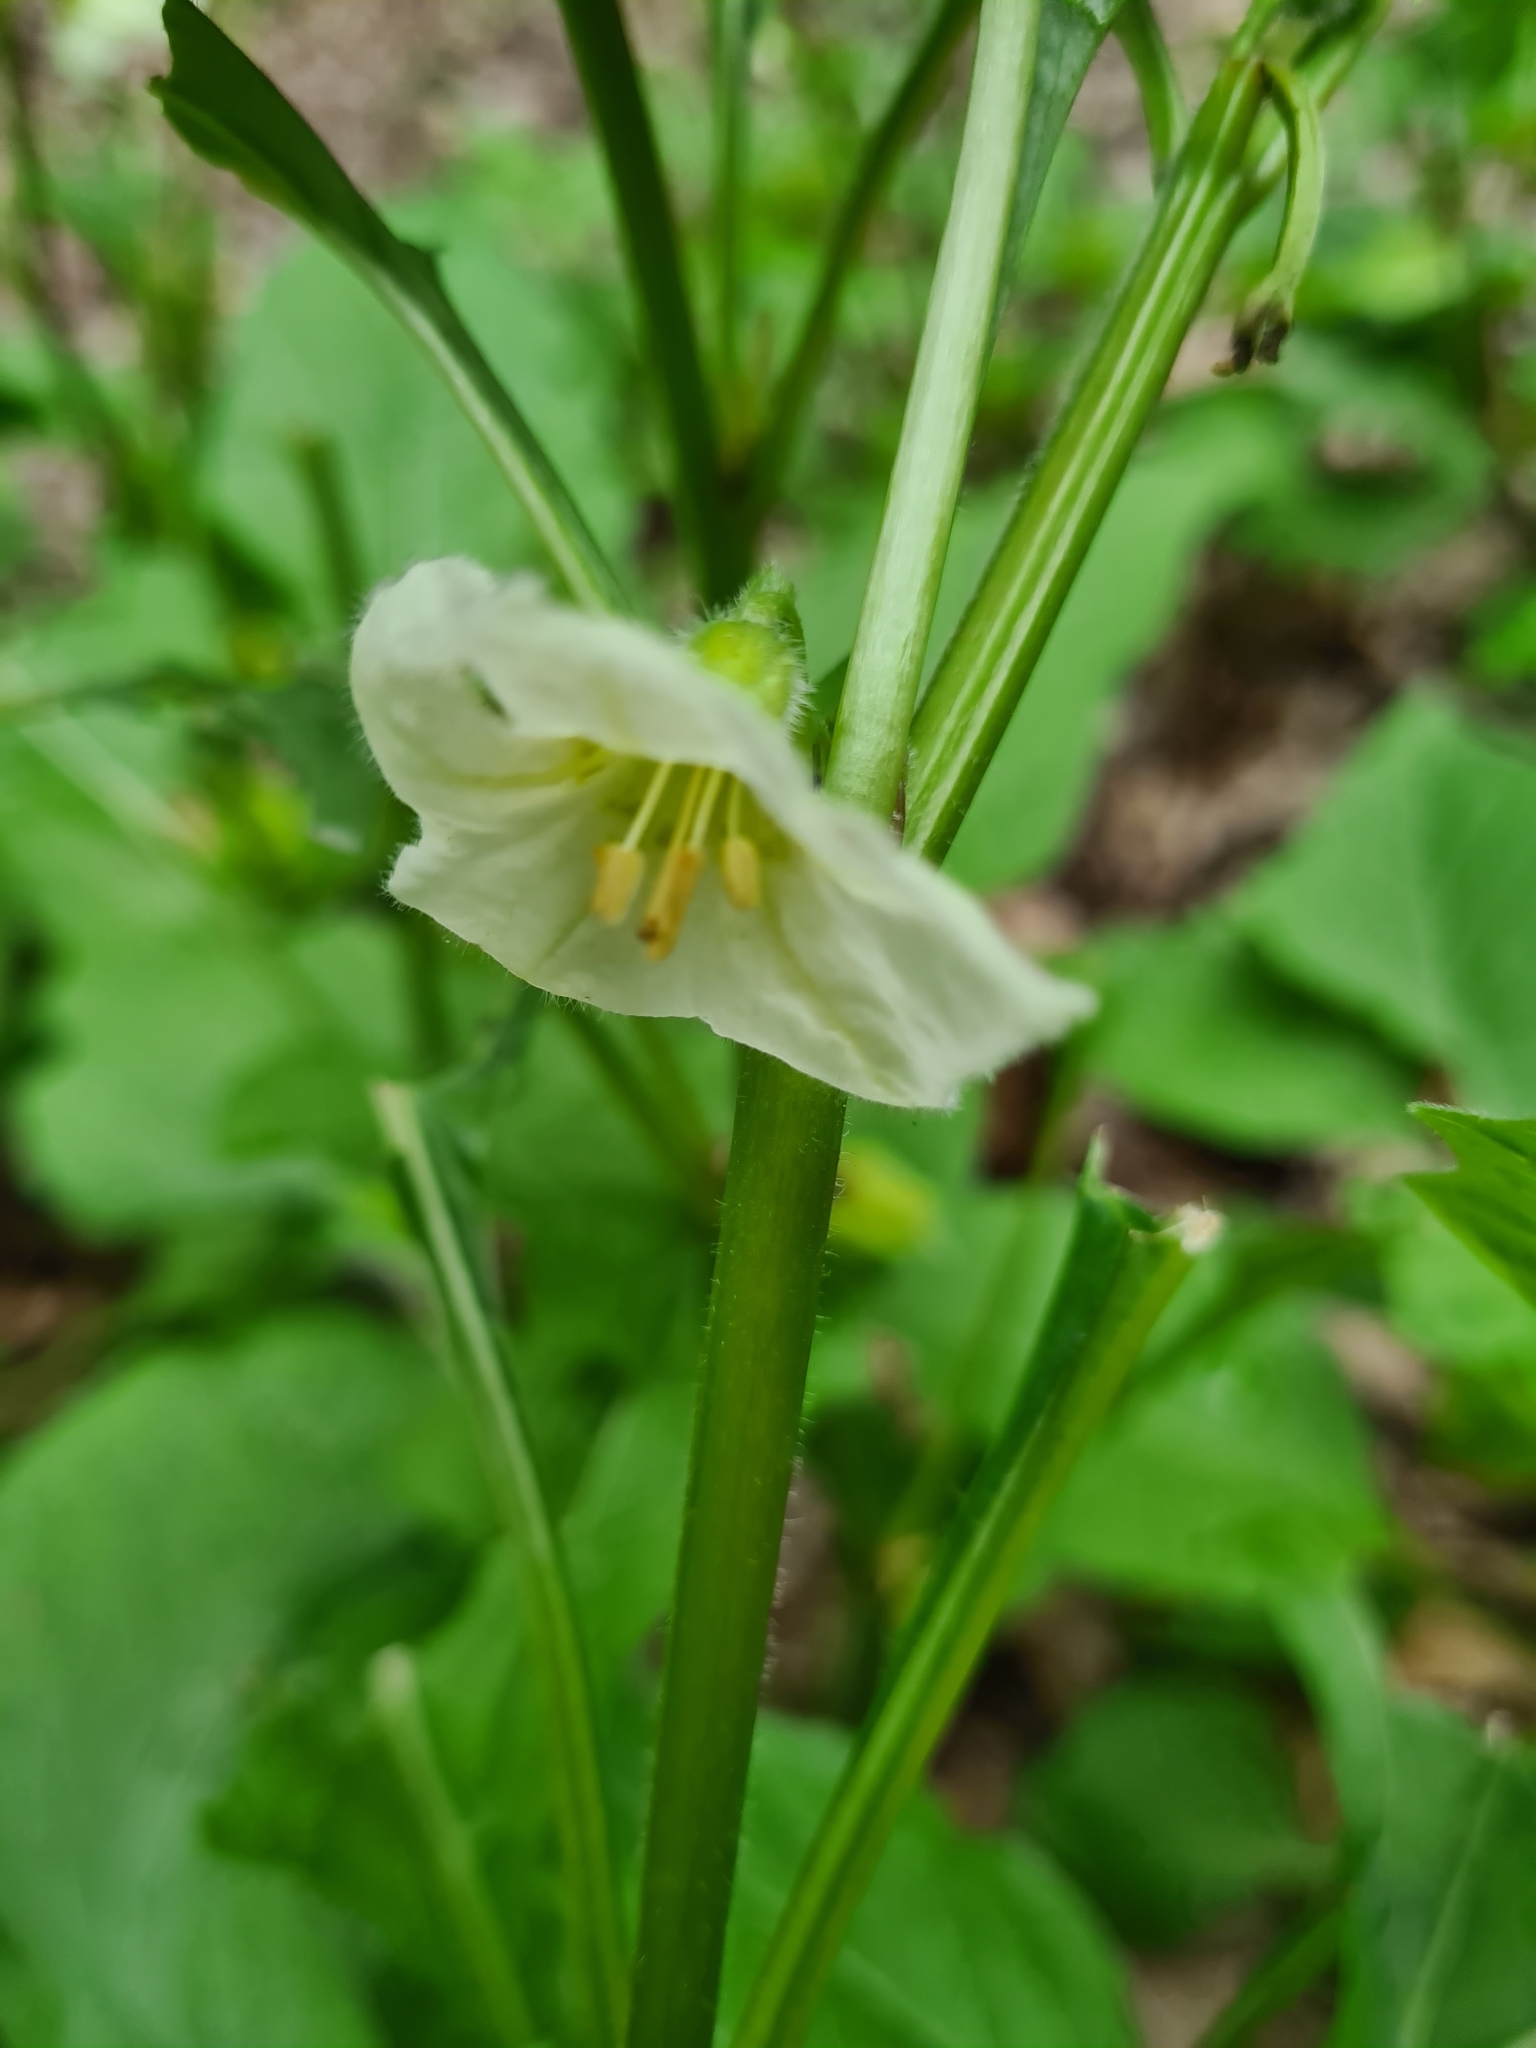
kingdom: Plantae
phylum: Tracheophyta
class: Magnoliopsida
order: Solanales
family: Solanaceae
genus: Alkekengi
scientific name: Alkekengi officinarum
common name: Japanese-lantern
